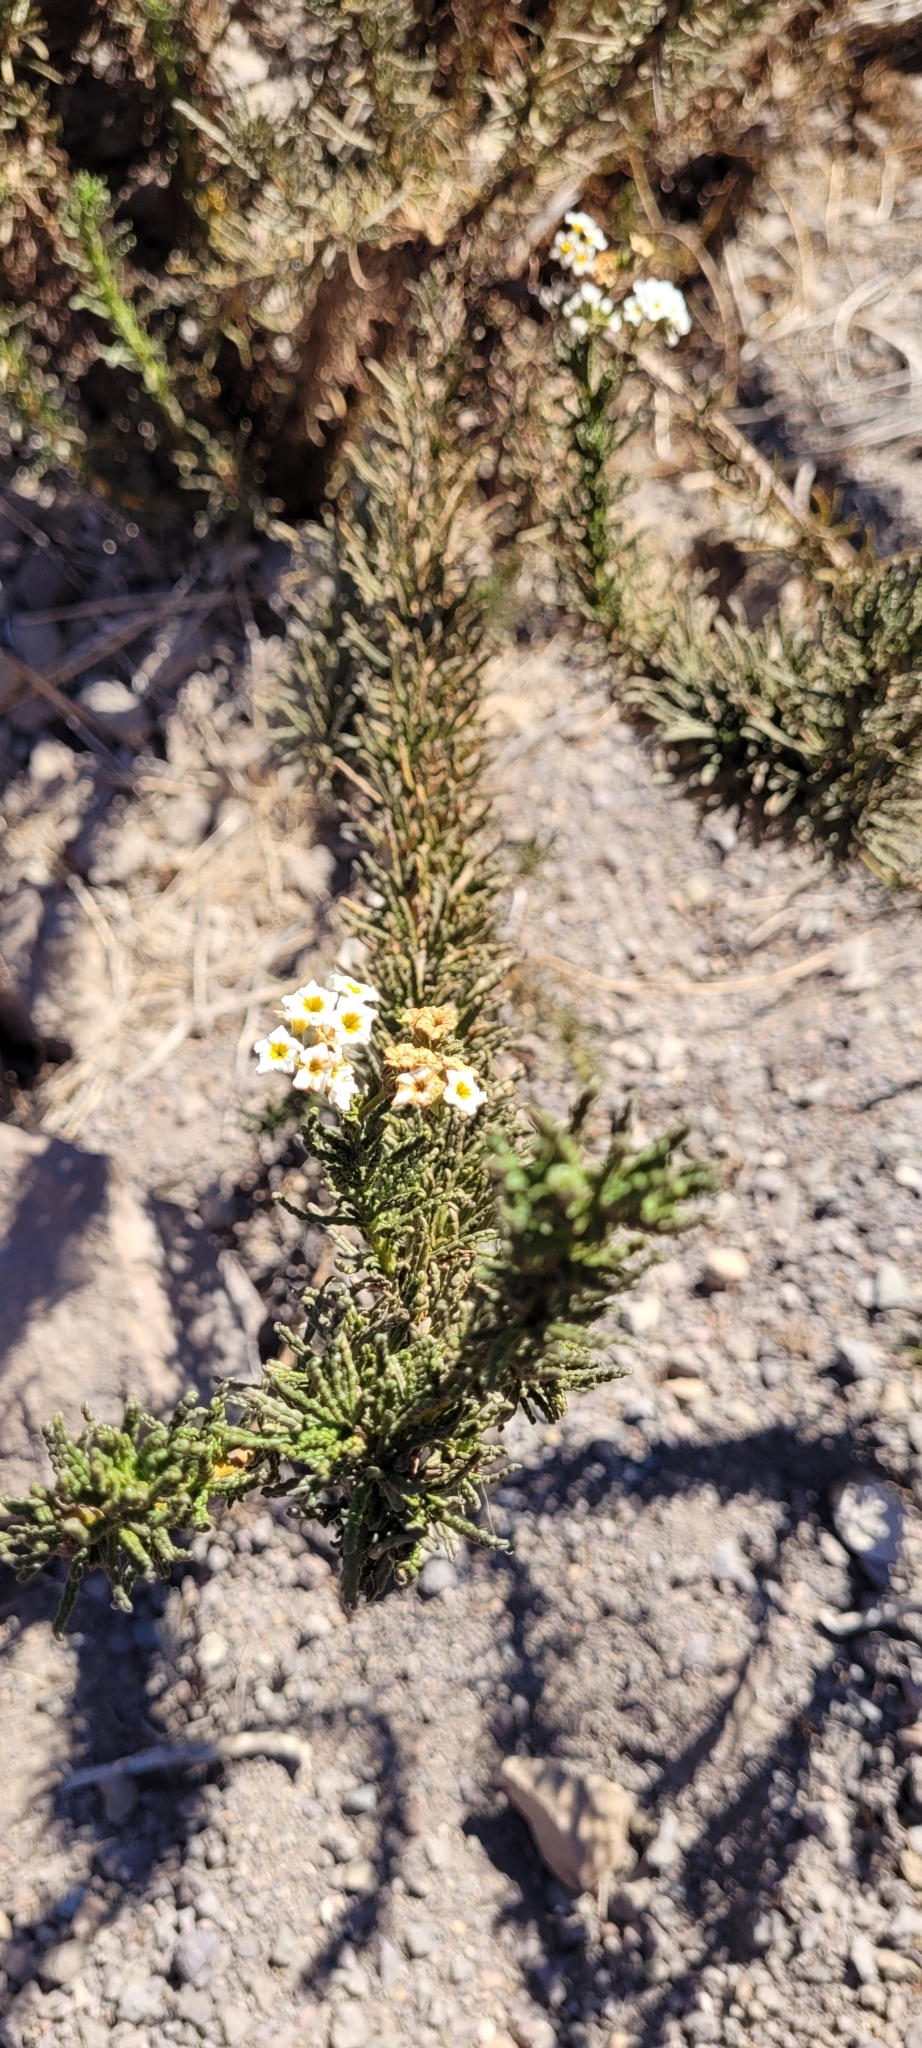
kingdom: Plantae
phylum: Tracheophyta
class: Magnoliopsida
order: Boraginales
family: Heliotropiaceae
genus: Heliotropium
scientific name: Heliotropium sinuatum
